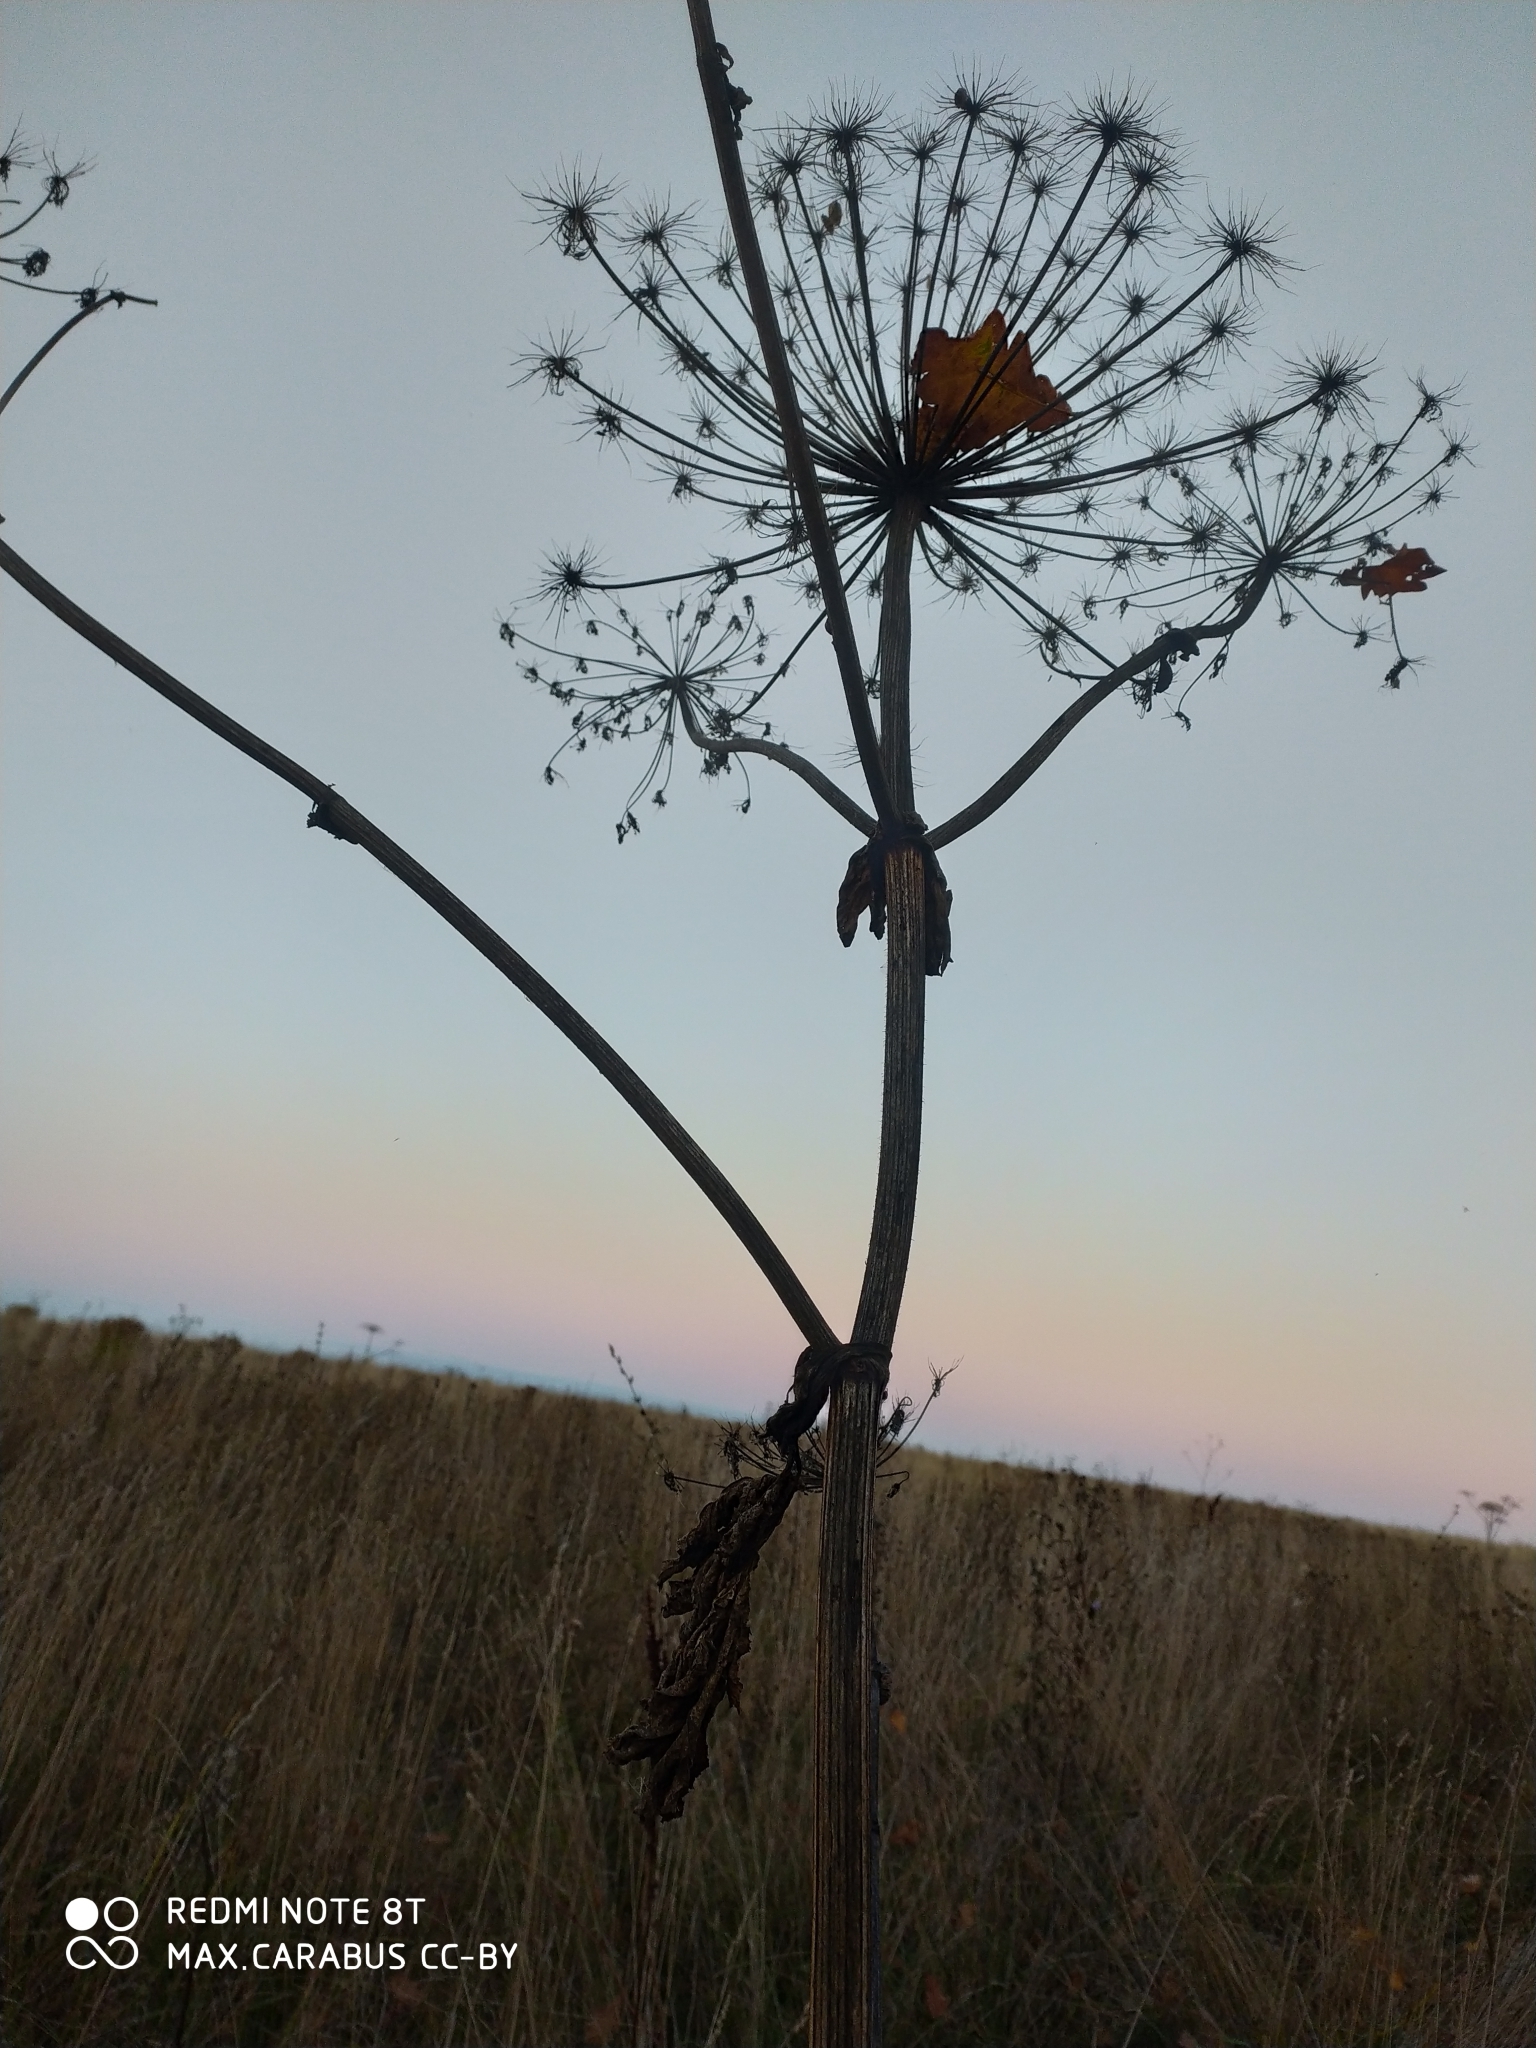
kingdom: Plantae
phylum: Tracheophyta
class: Magnoliopsida
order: Apiales
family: Apiaceae
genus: Heracleum
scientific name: Heracleum sosnowskyi
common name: Sosnowsky's hogweed
